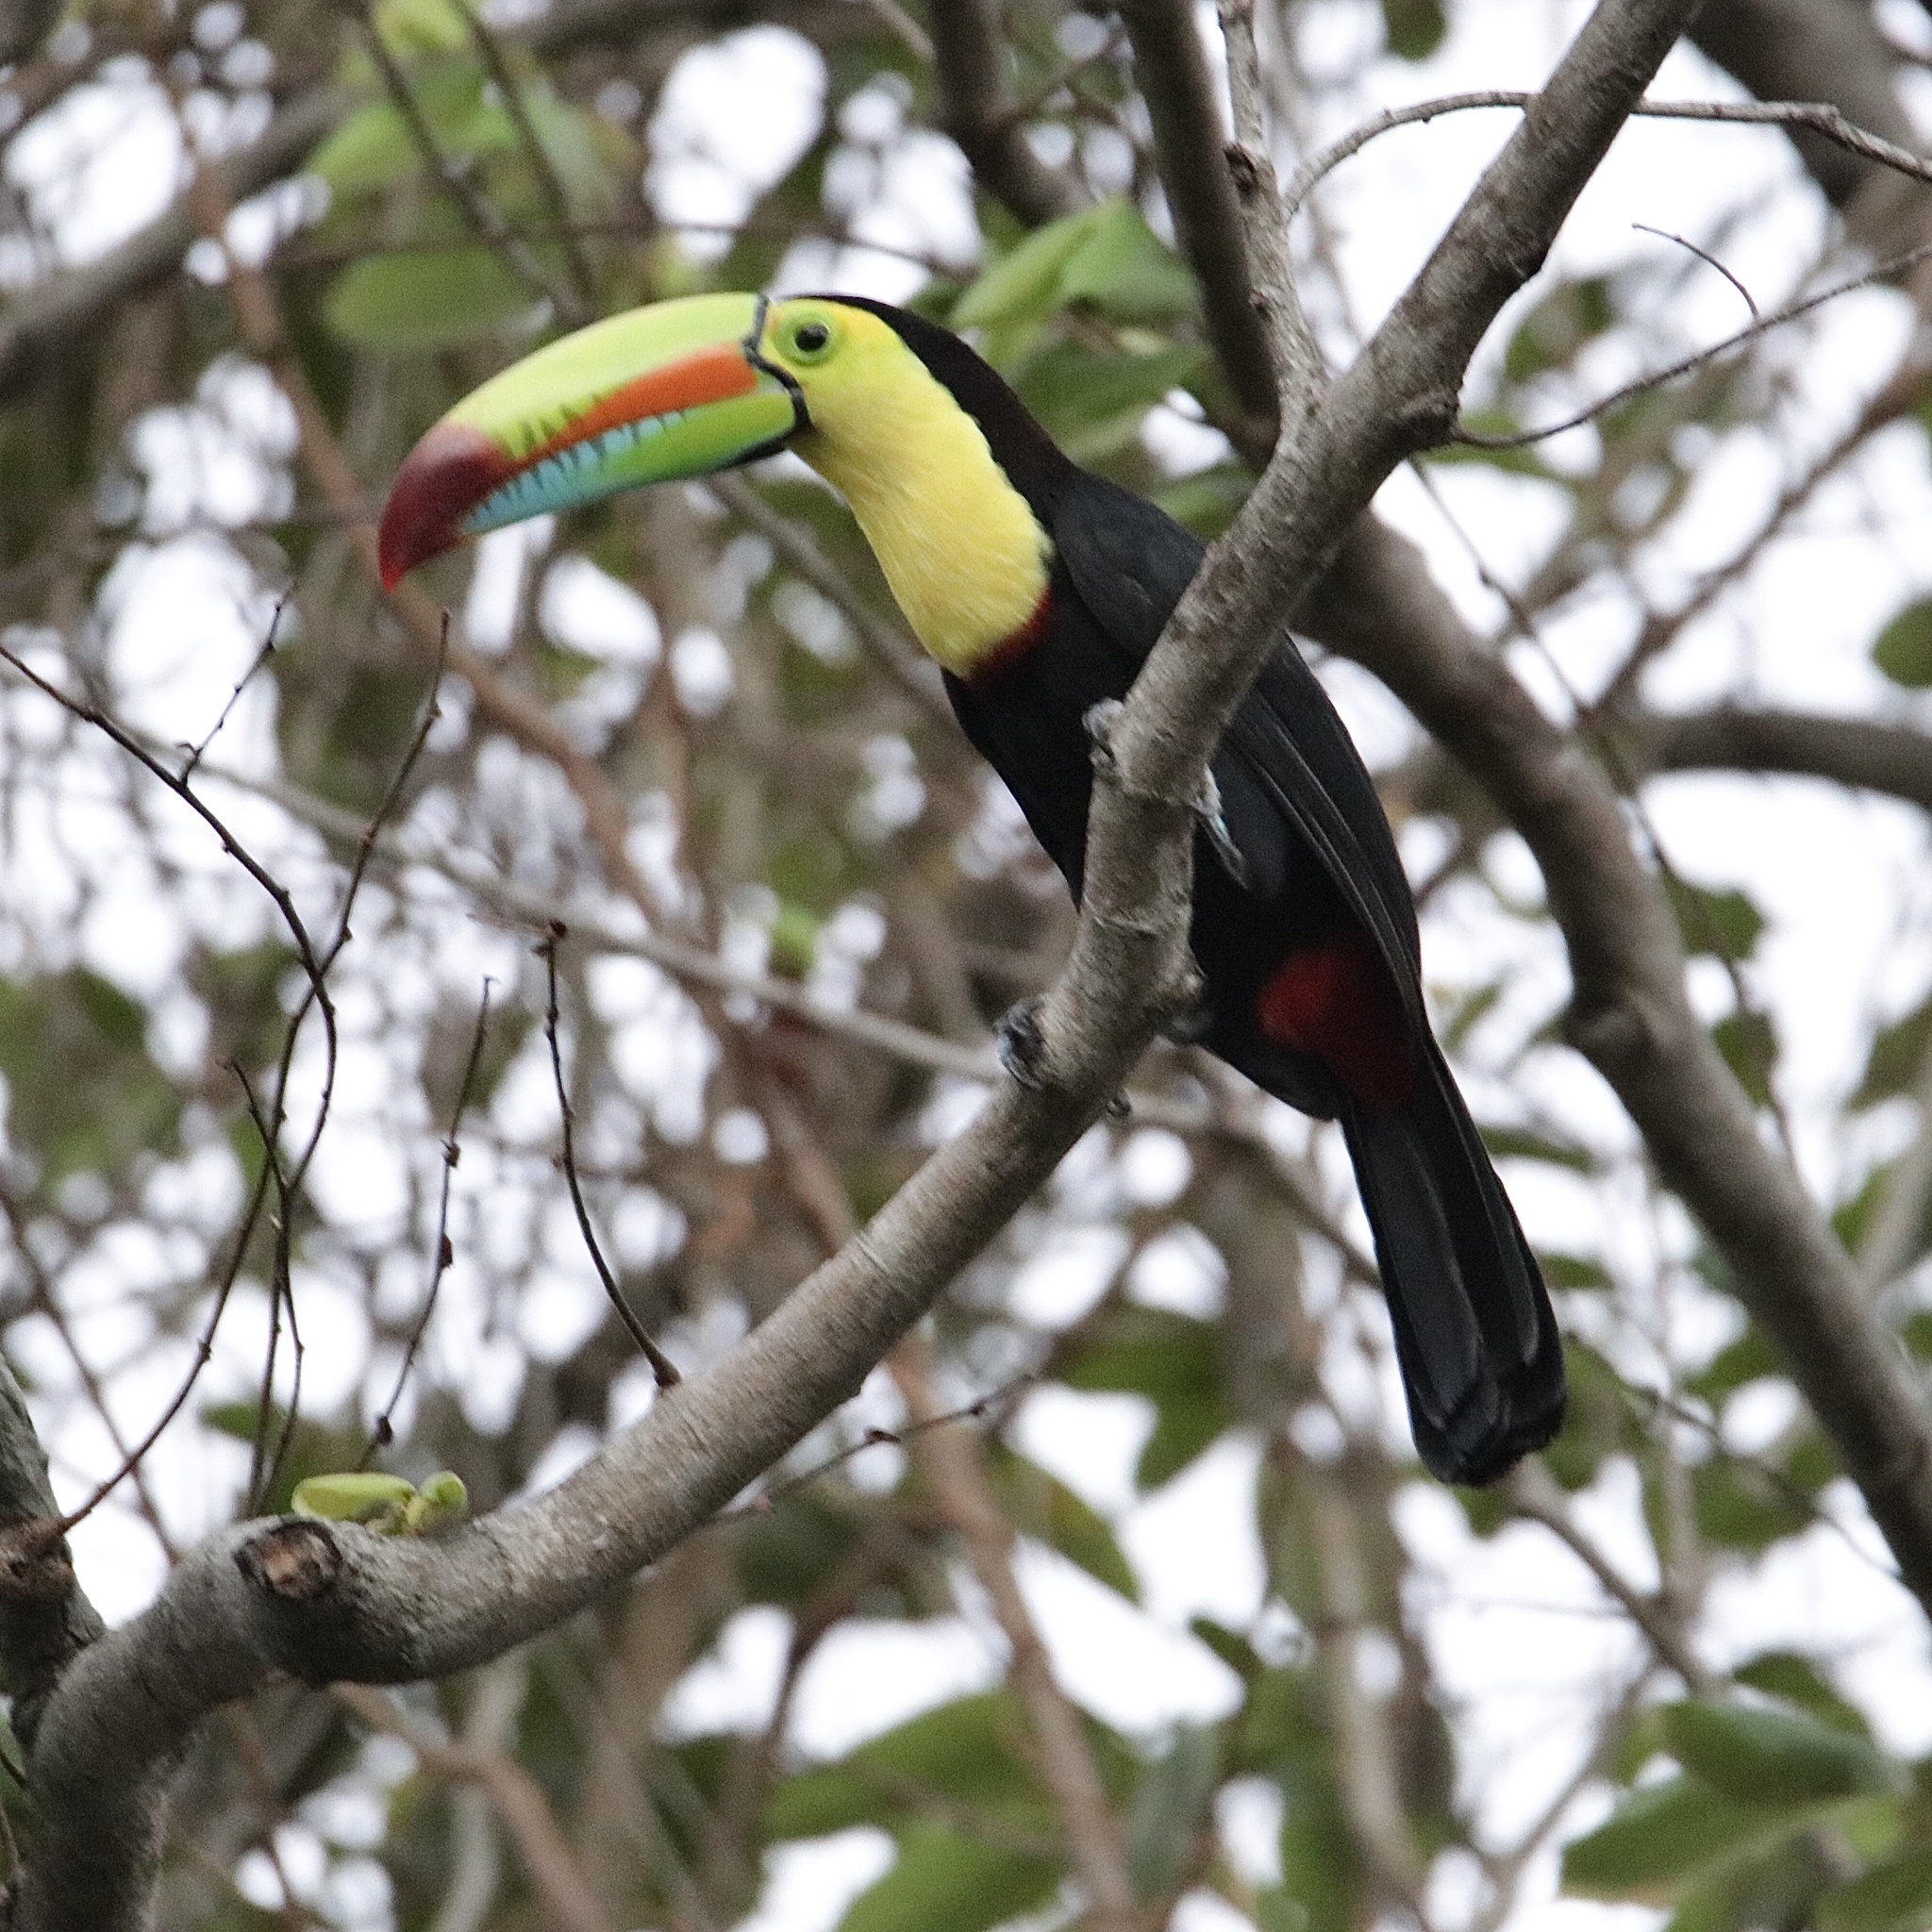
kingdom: Animalia
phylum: Chordata
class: Aves
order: Piciformes
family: Ramphastidae
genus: Ramphastos
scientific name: Ramphastos sulfuratus
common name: Keel-billed toucan
